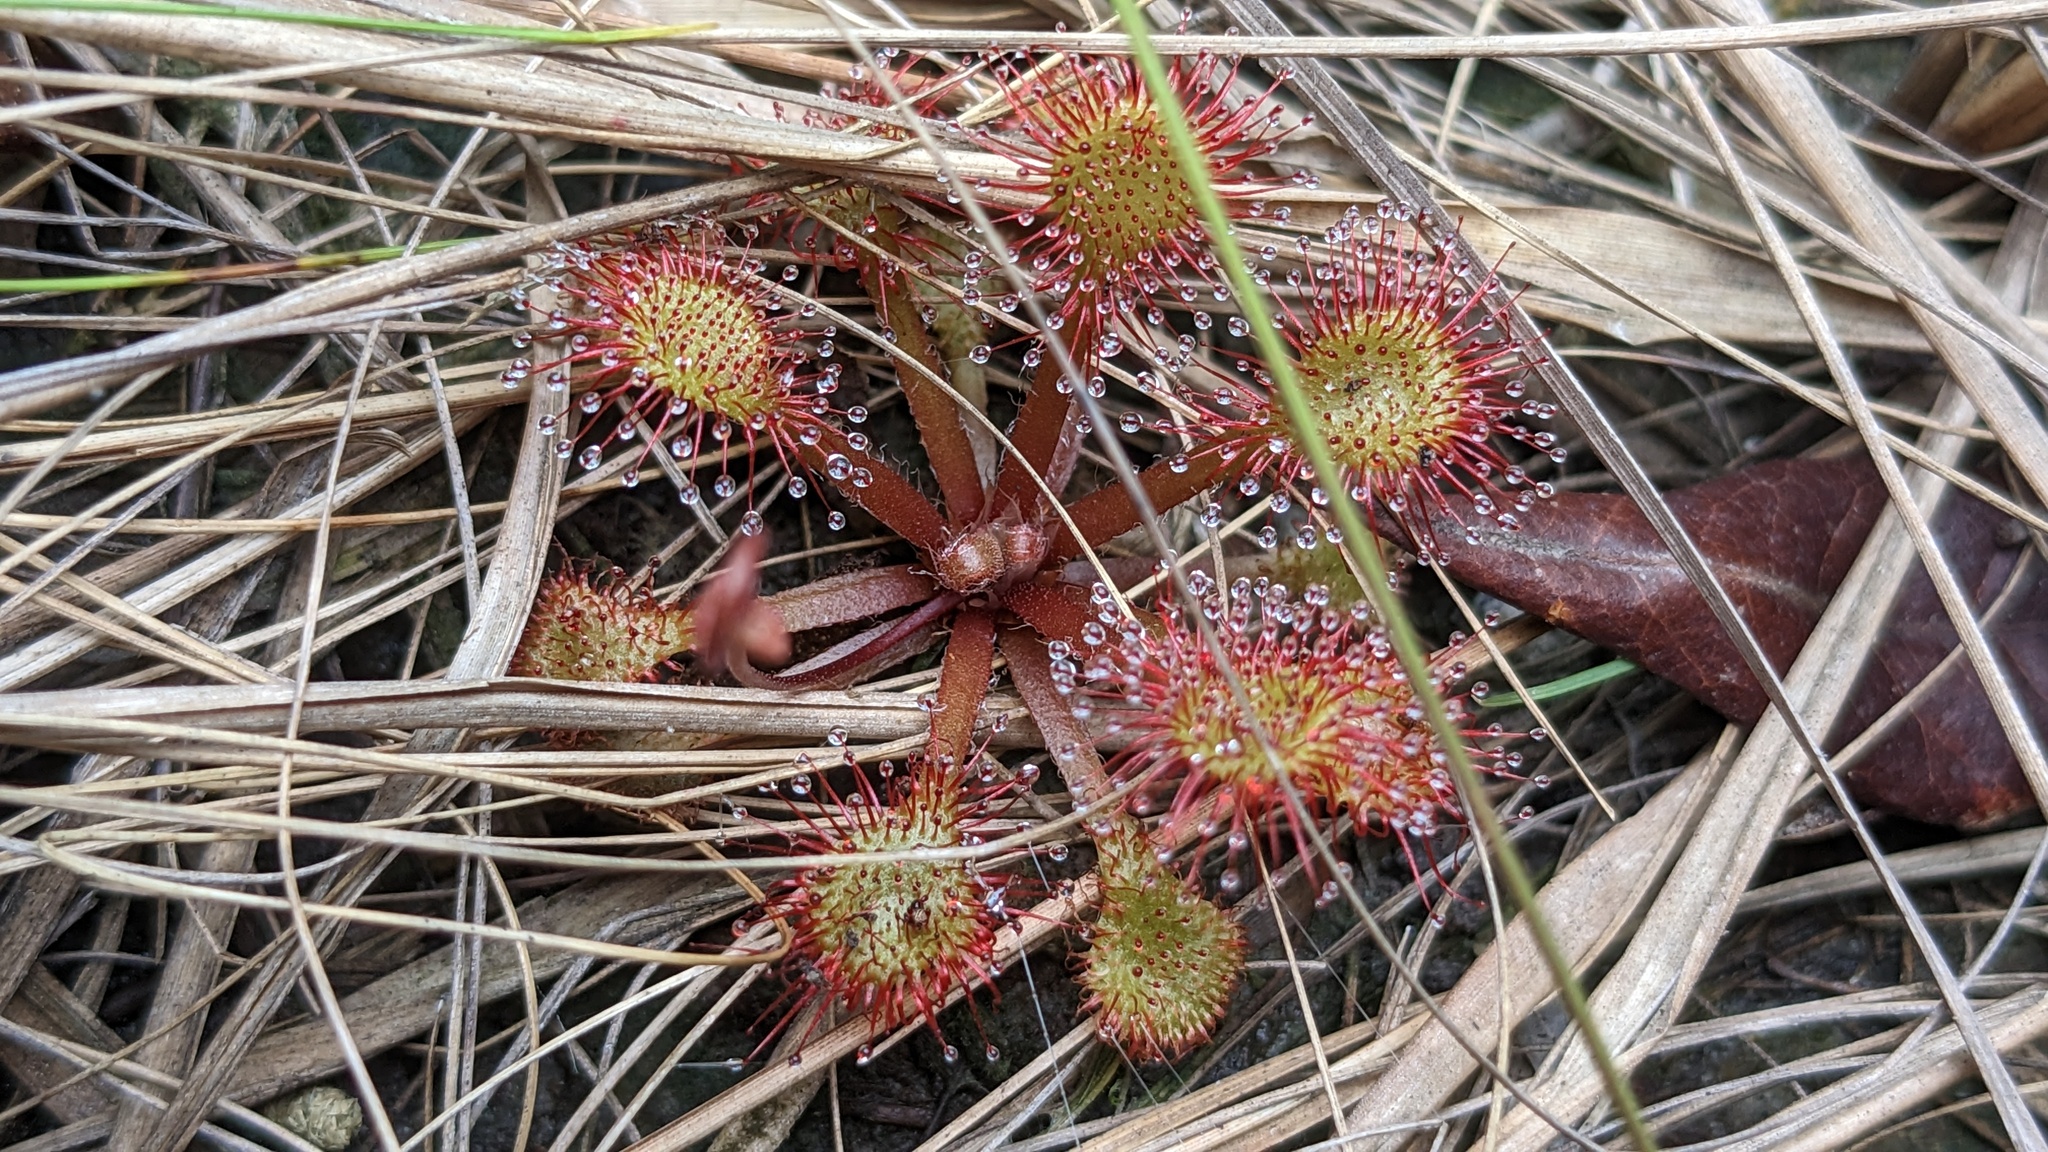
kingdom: Plantae
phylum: Tracheophyta
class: Magnoliopsida
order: Caryophyllales
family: Droseraceae
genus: Drosera
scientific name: Drosera capillaris
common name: Pink sundew
